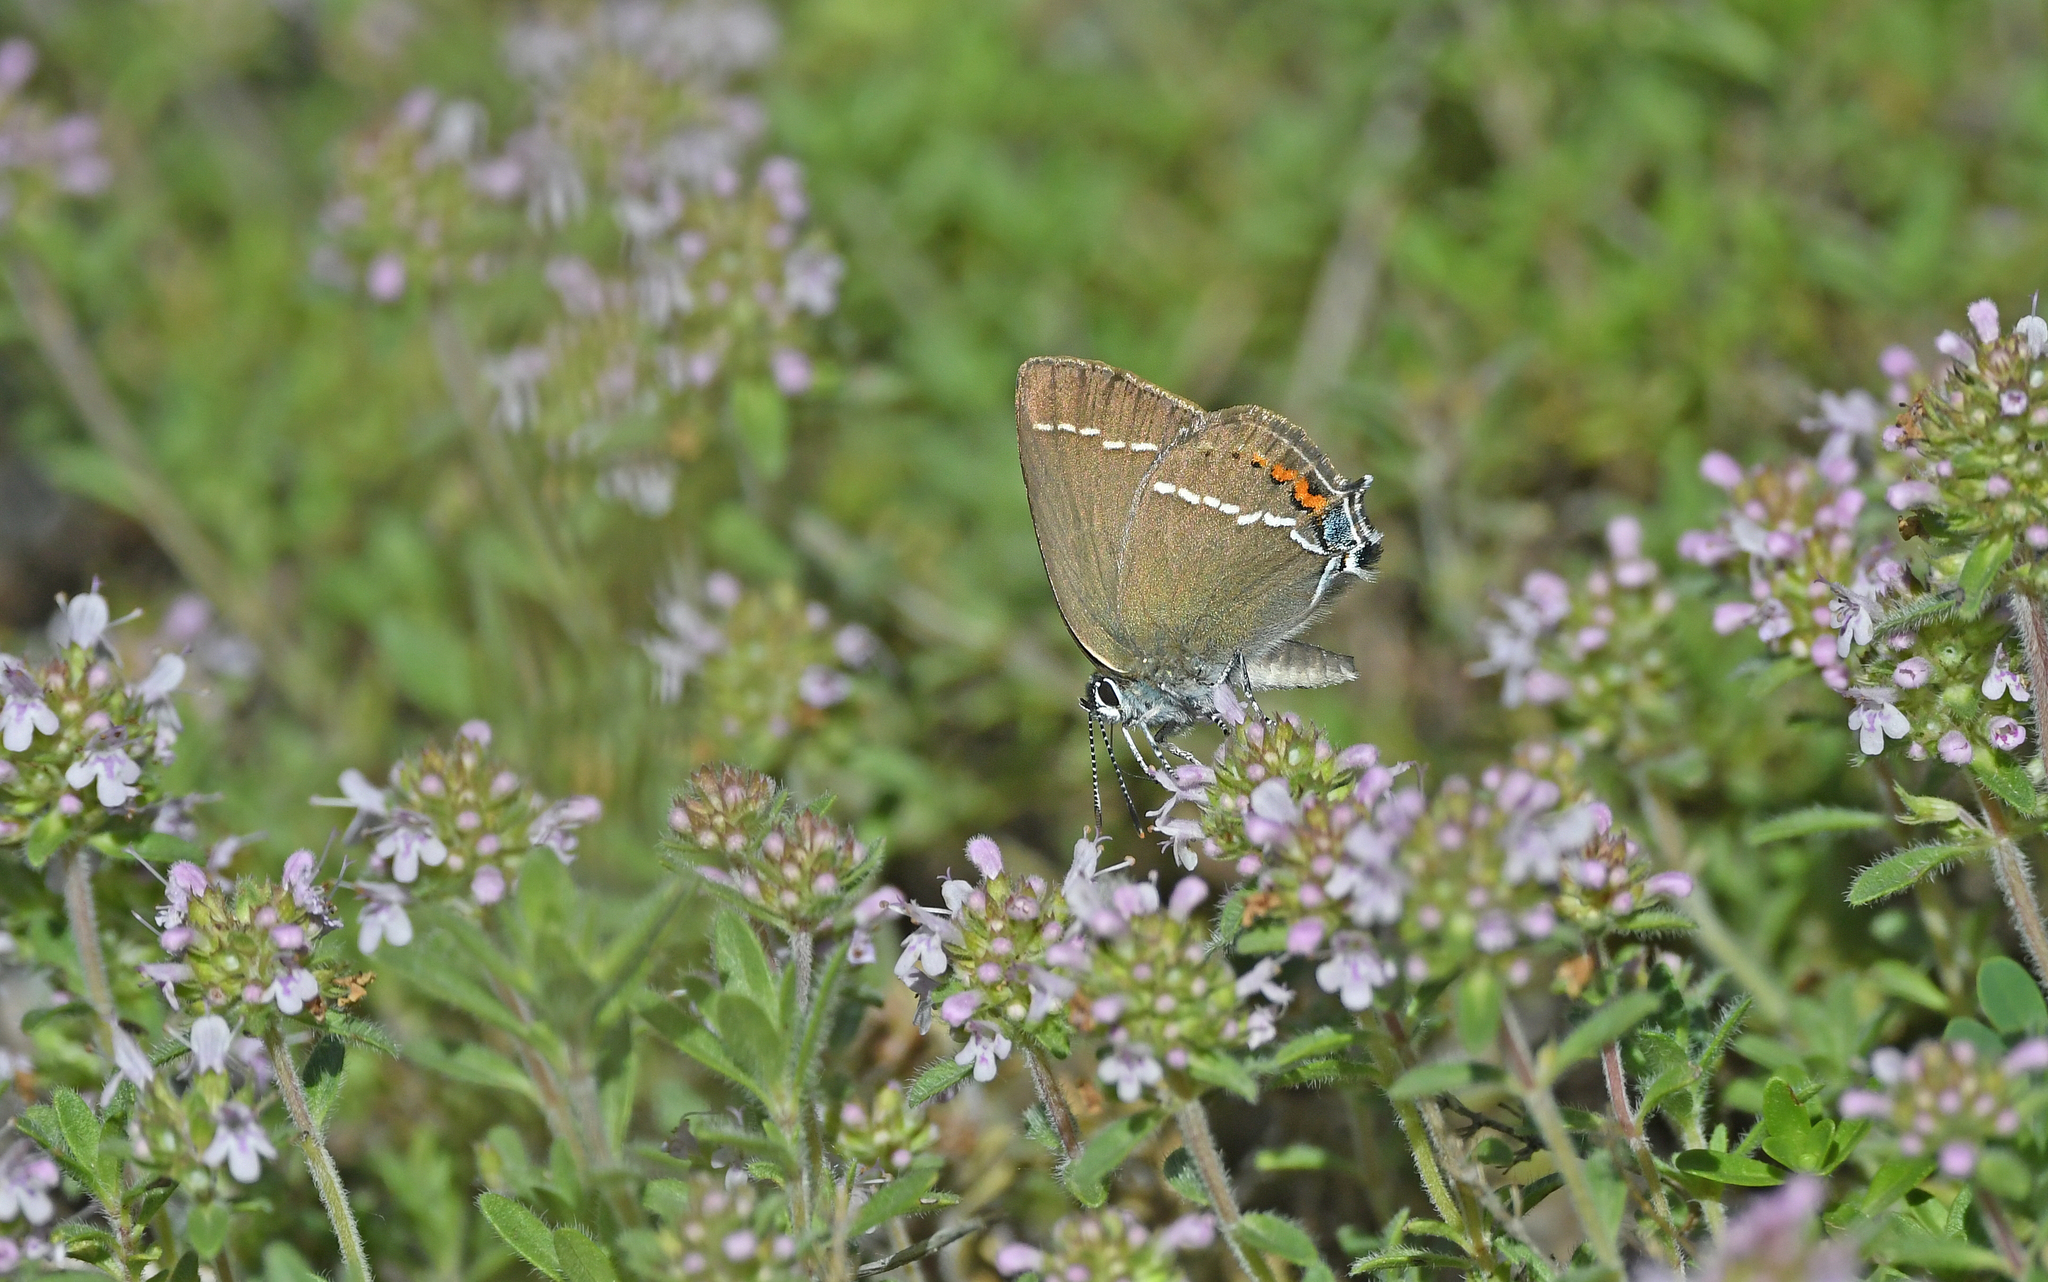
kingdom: Animalia
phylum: Arthropoda
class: Insecta
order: Lepidoptera
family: Lycaenidae
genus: Tuttiola
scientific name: Tuttiola spini
